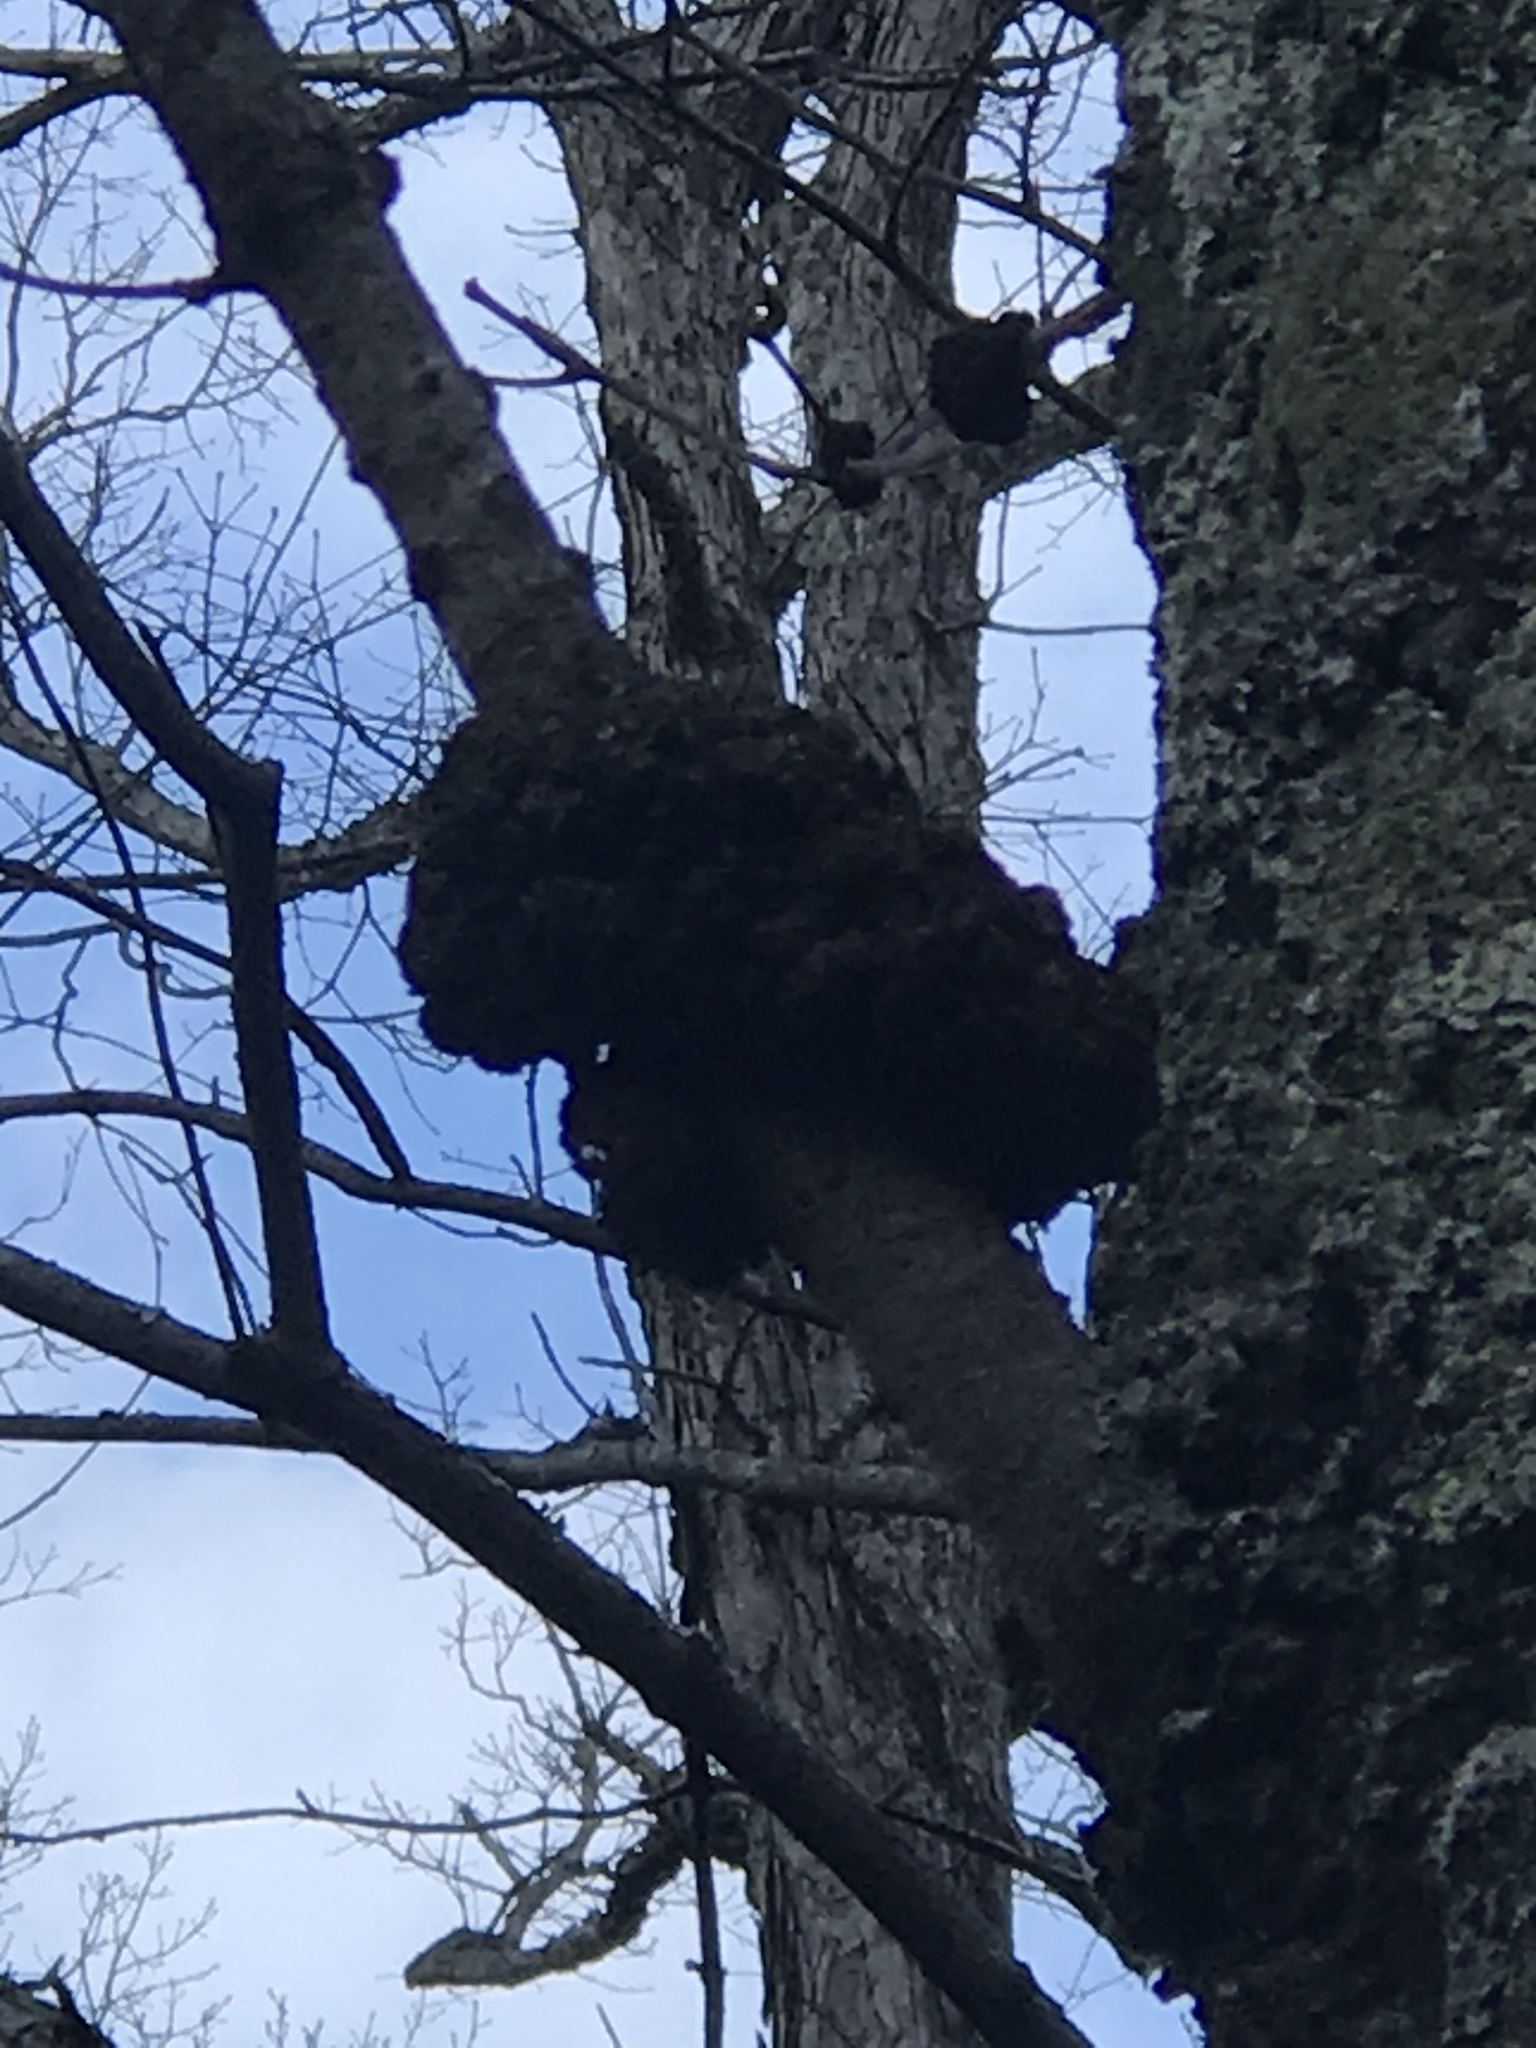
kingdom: Fungi
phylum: Ascomycota
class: Dothideomycetes
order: Venturiales
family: Venturiaceae
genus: Apiosporina
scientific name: Apiosporina morbosa
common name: Black knot
